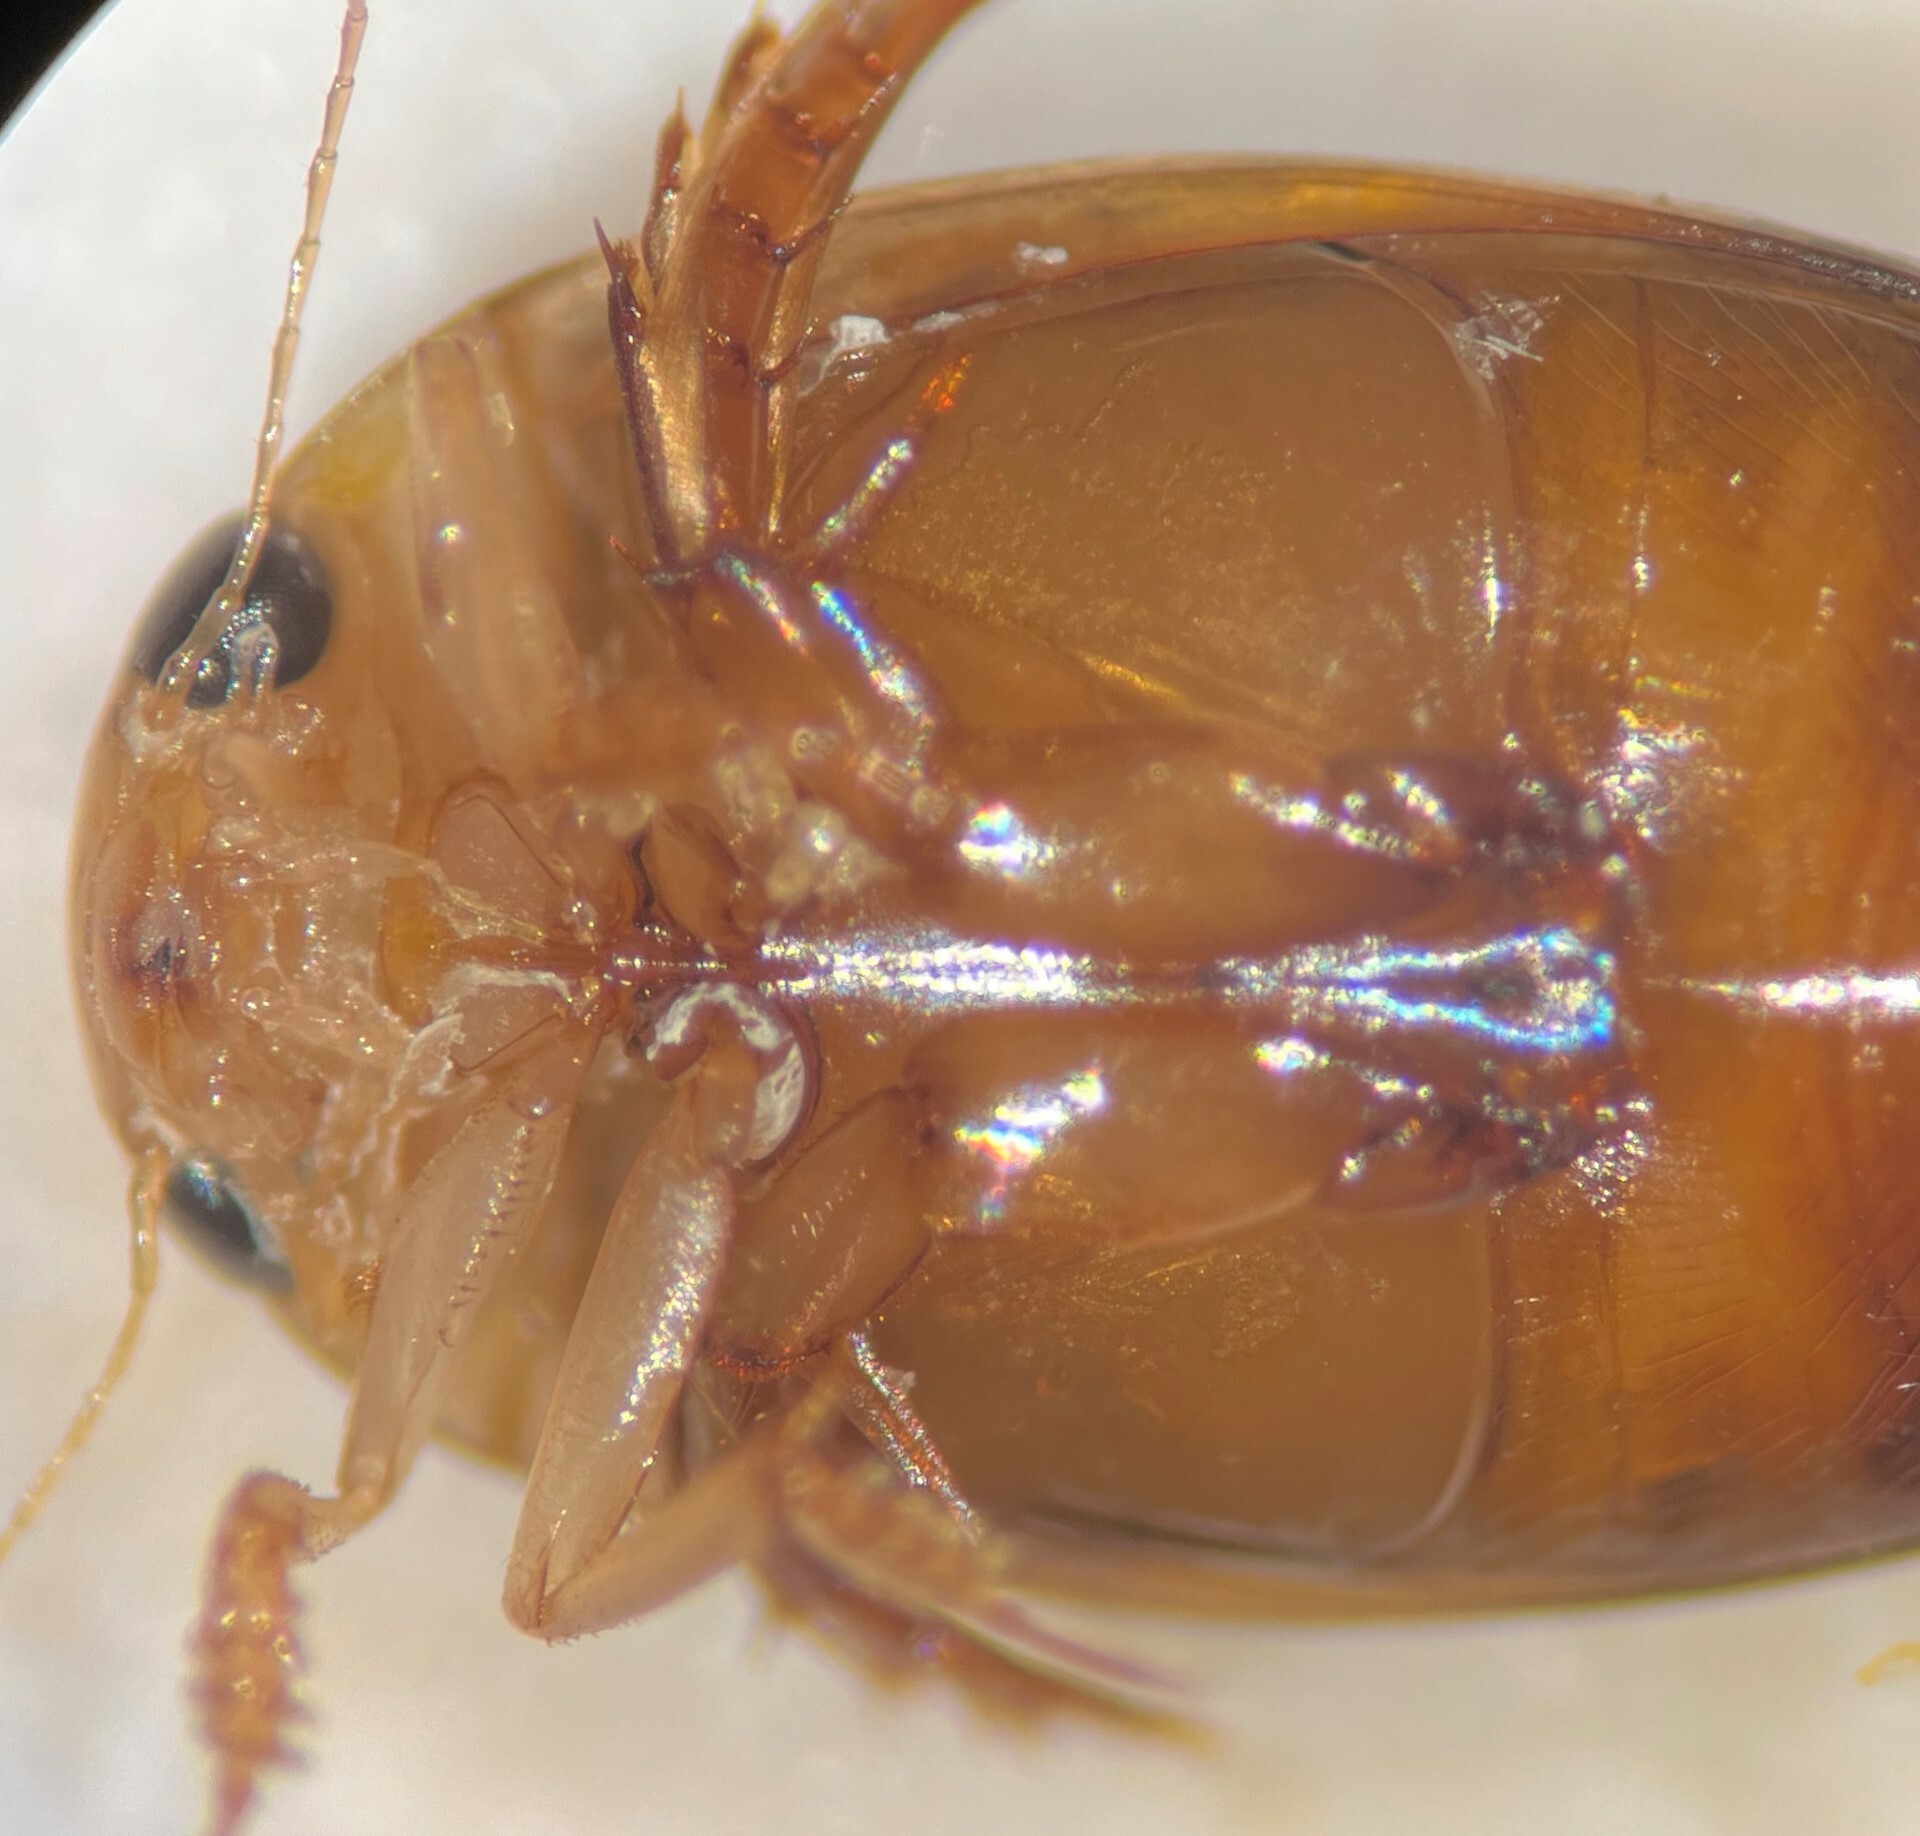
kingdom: Animalia
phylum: Arthropoda
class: Insecta
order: Coleoptera
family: Dytiscidae
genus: Laccophilus
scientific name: Laccophilus vacaensis
